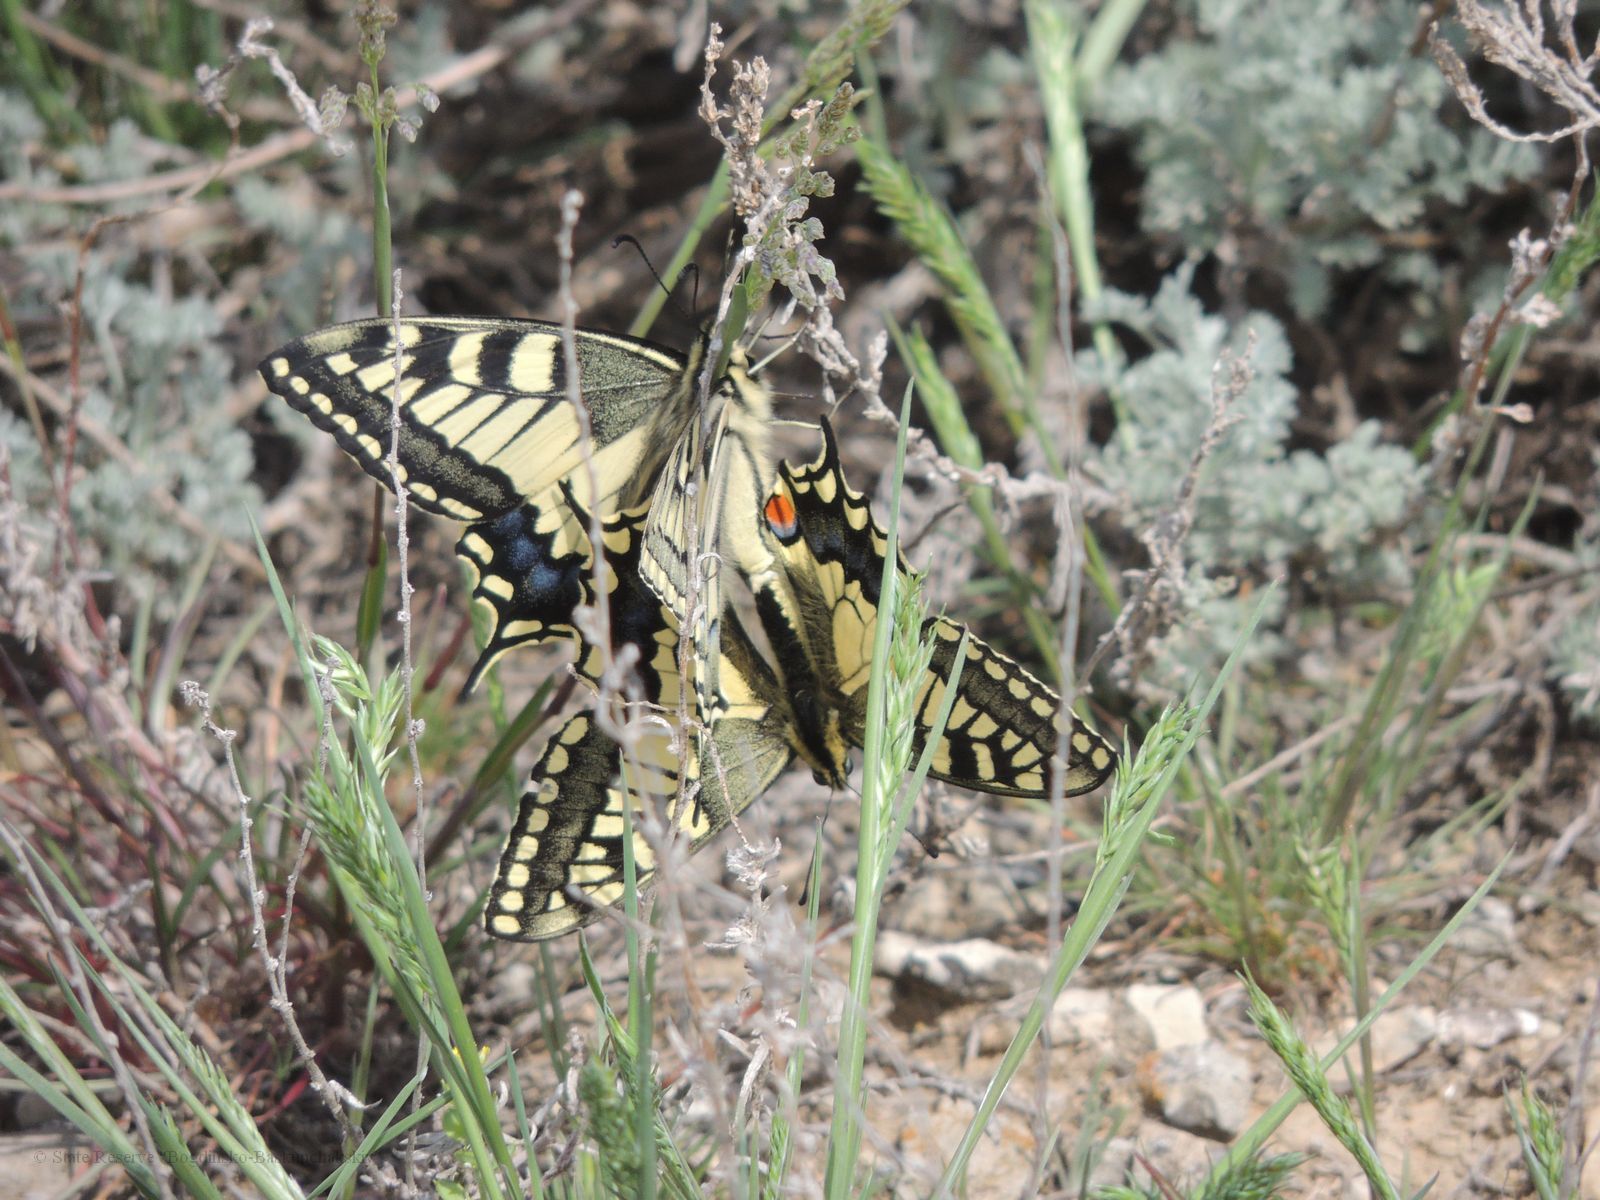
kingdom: Animalia
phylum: Arthropoda
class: Insecta
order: Lepidoptera
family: Papilionidae
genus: Papilio
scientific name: Papilio machaon
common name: Swallowtail
